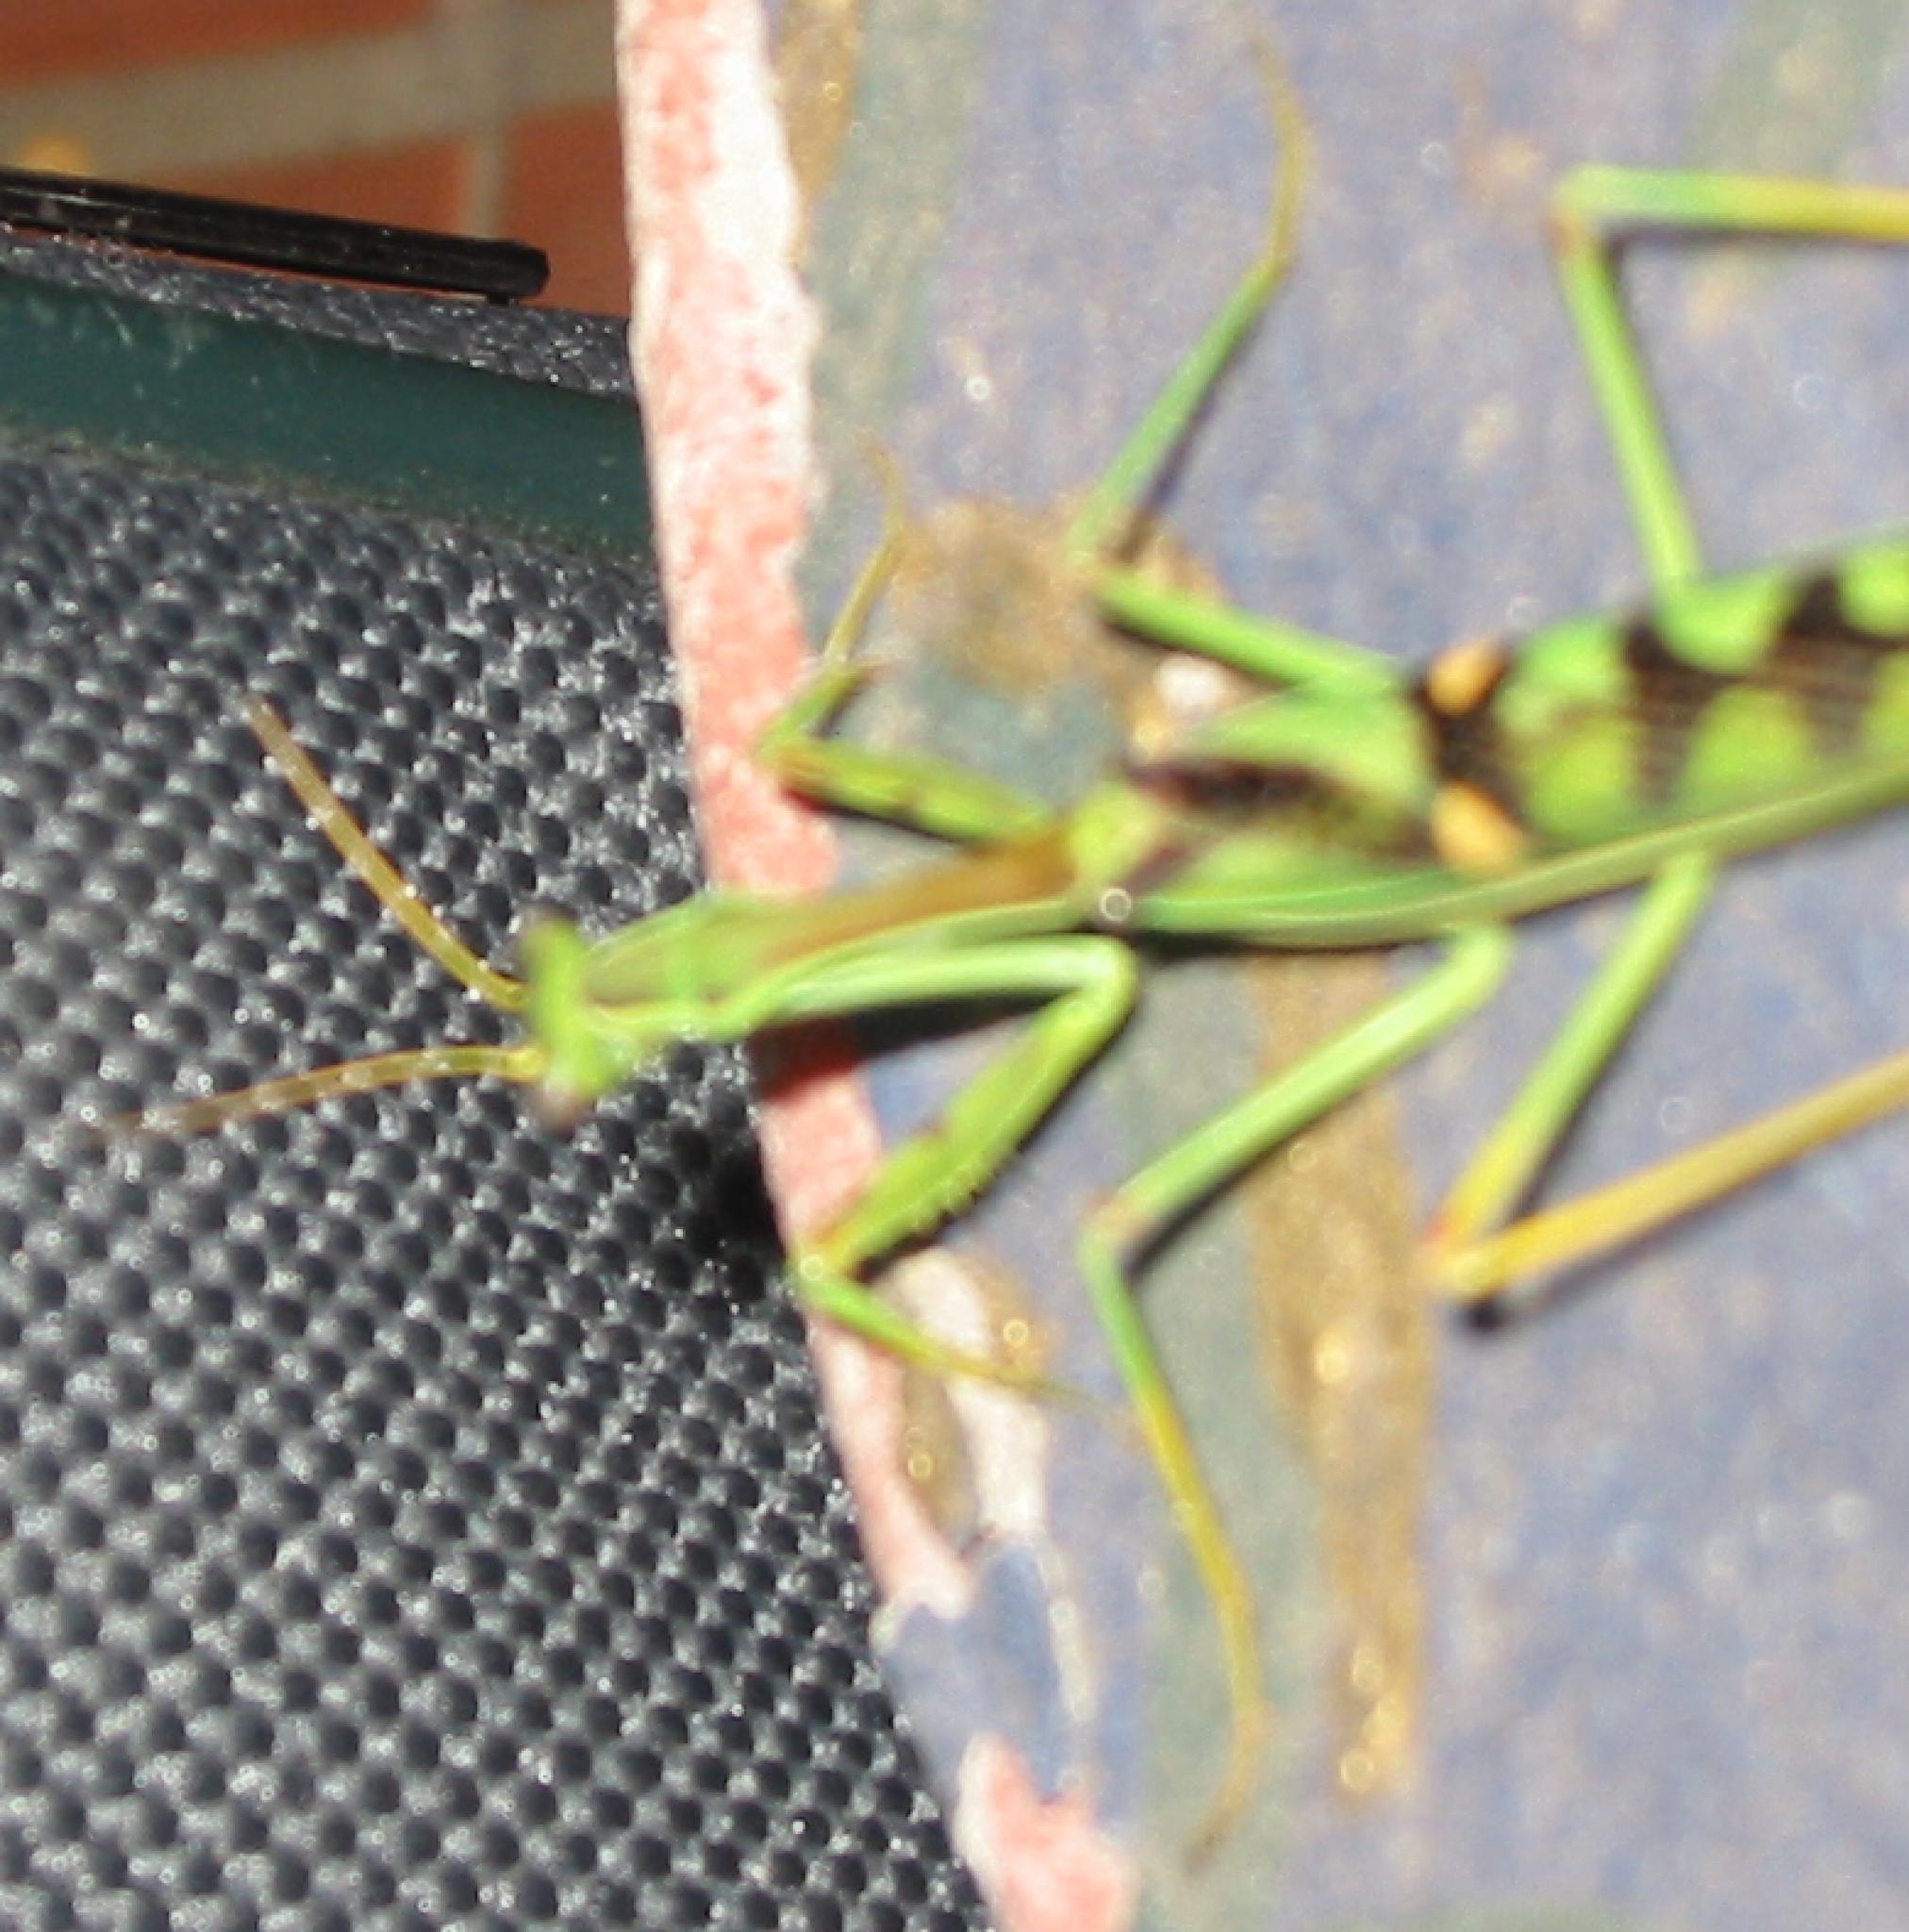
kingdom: Animalia
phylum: Arthropoda
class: Insecta
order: Mantodea
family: Mantidae
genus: Omomantis
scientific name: Omomantis zebrata
